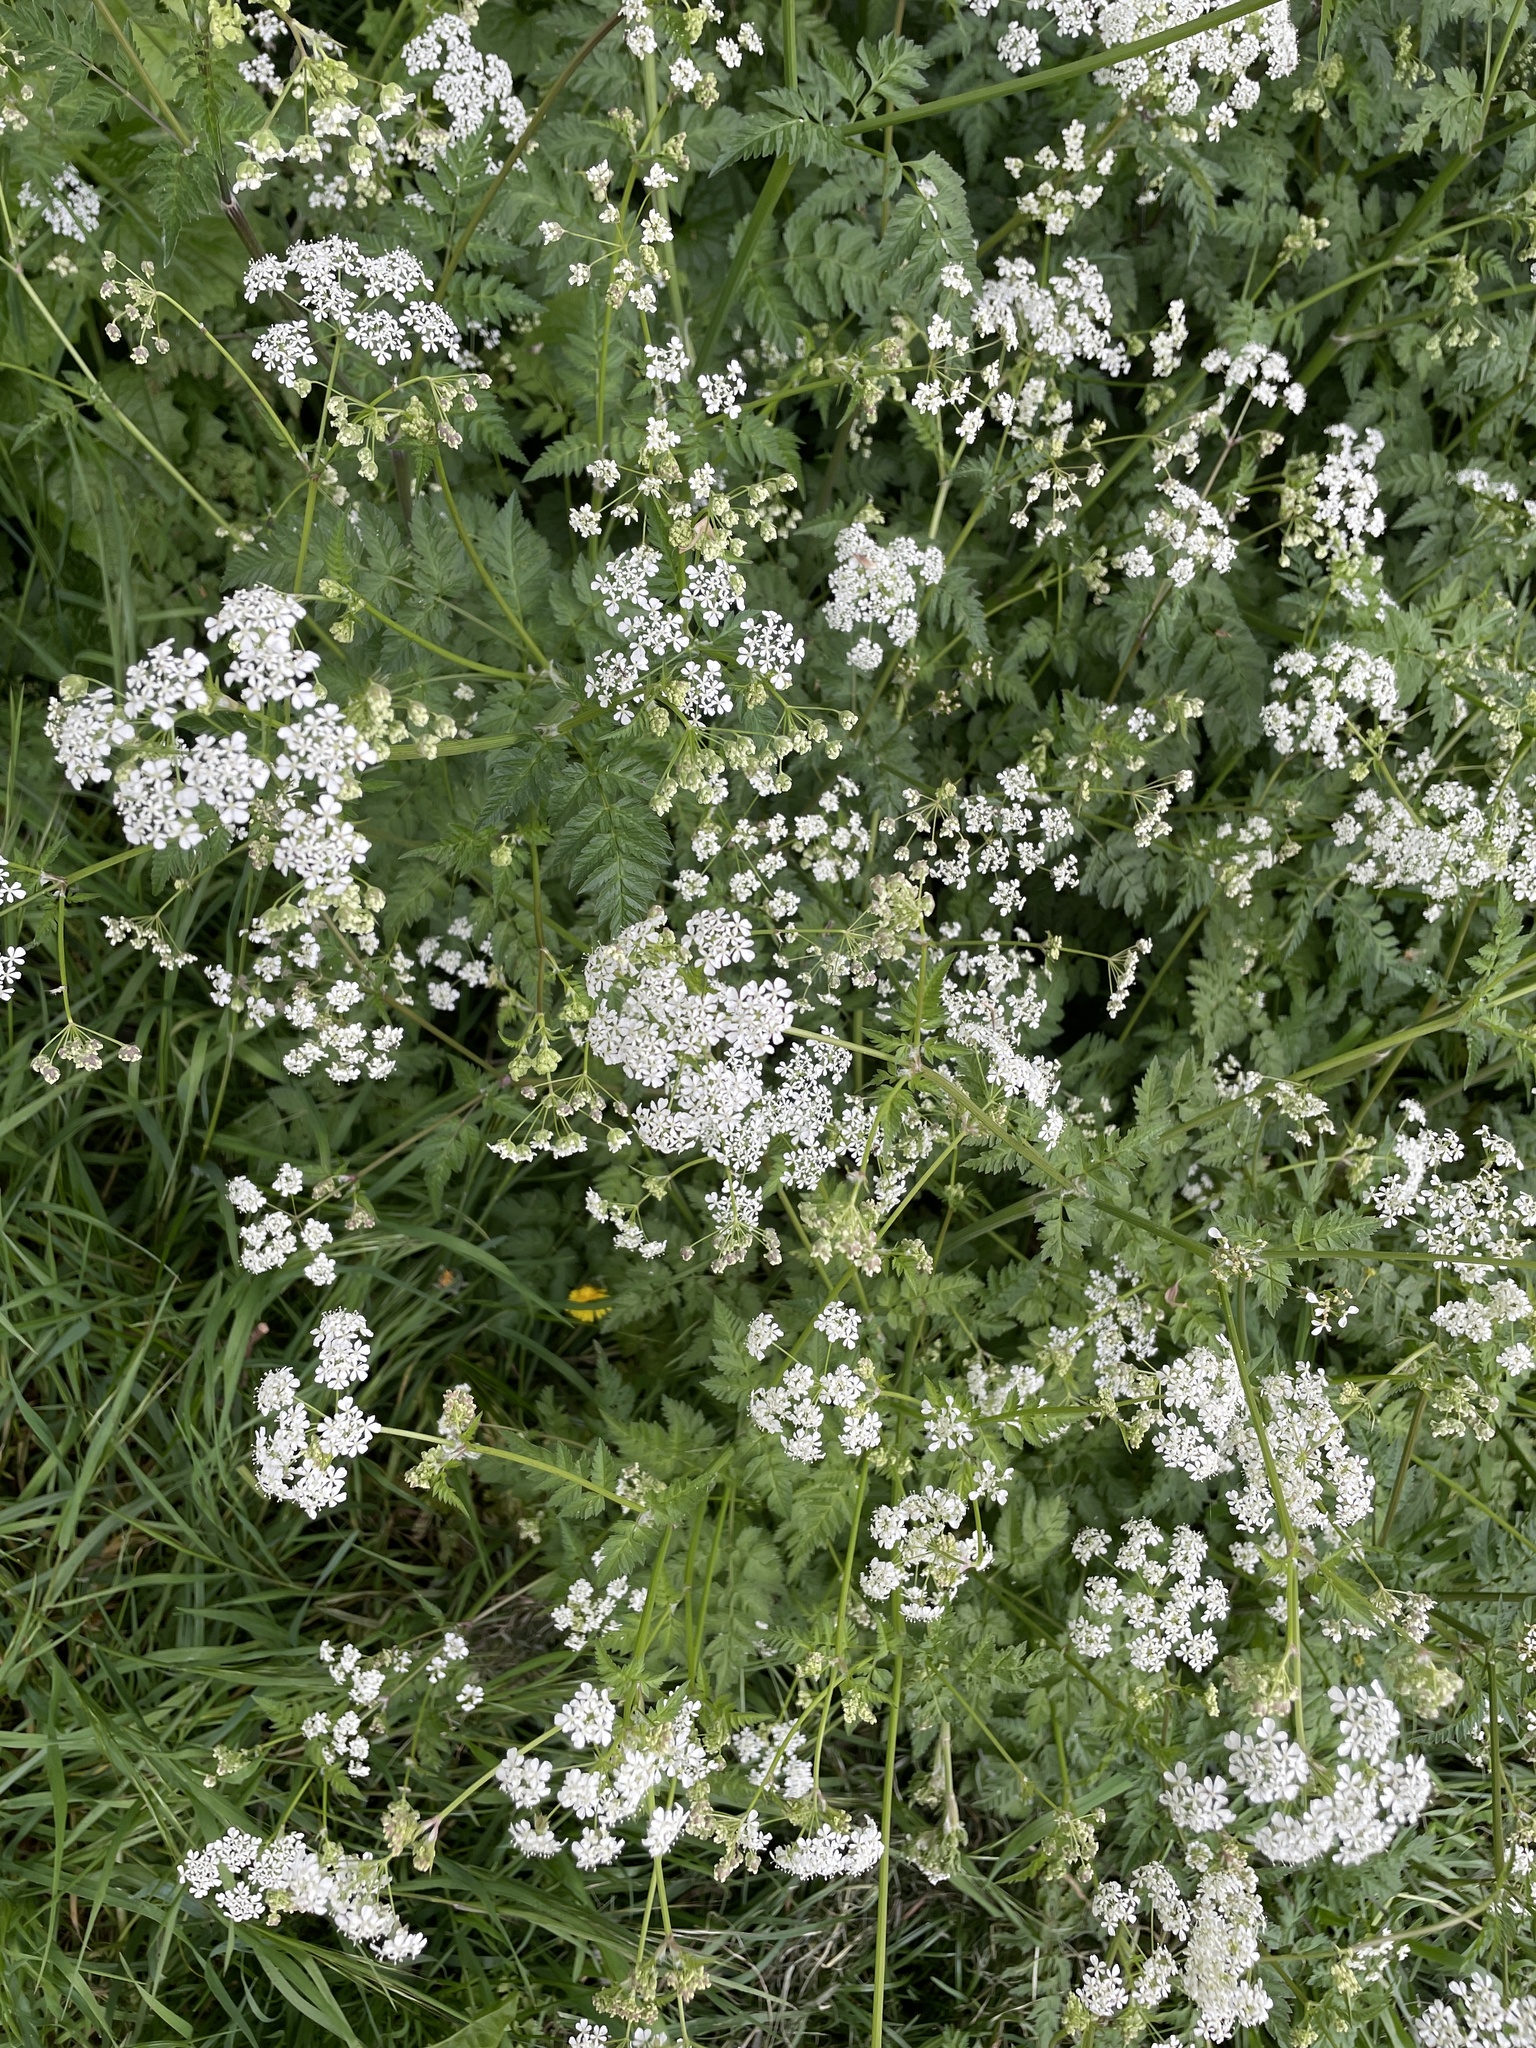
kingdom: Plantae
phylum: Tracheophyta
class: Magnoliopsida
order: Apiales
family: Apiaceae
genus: Anthriscus
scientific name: Anthriscus sylvestris
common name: Cow parsley
